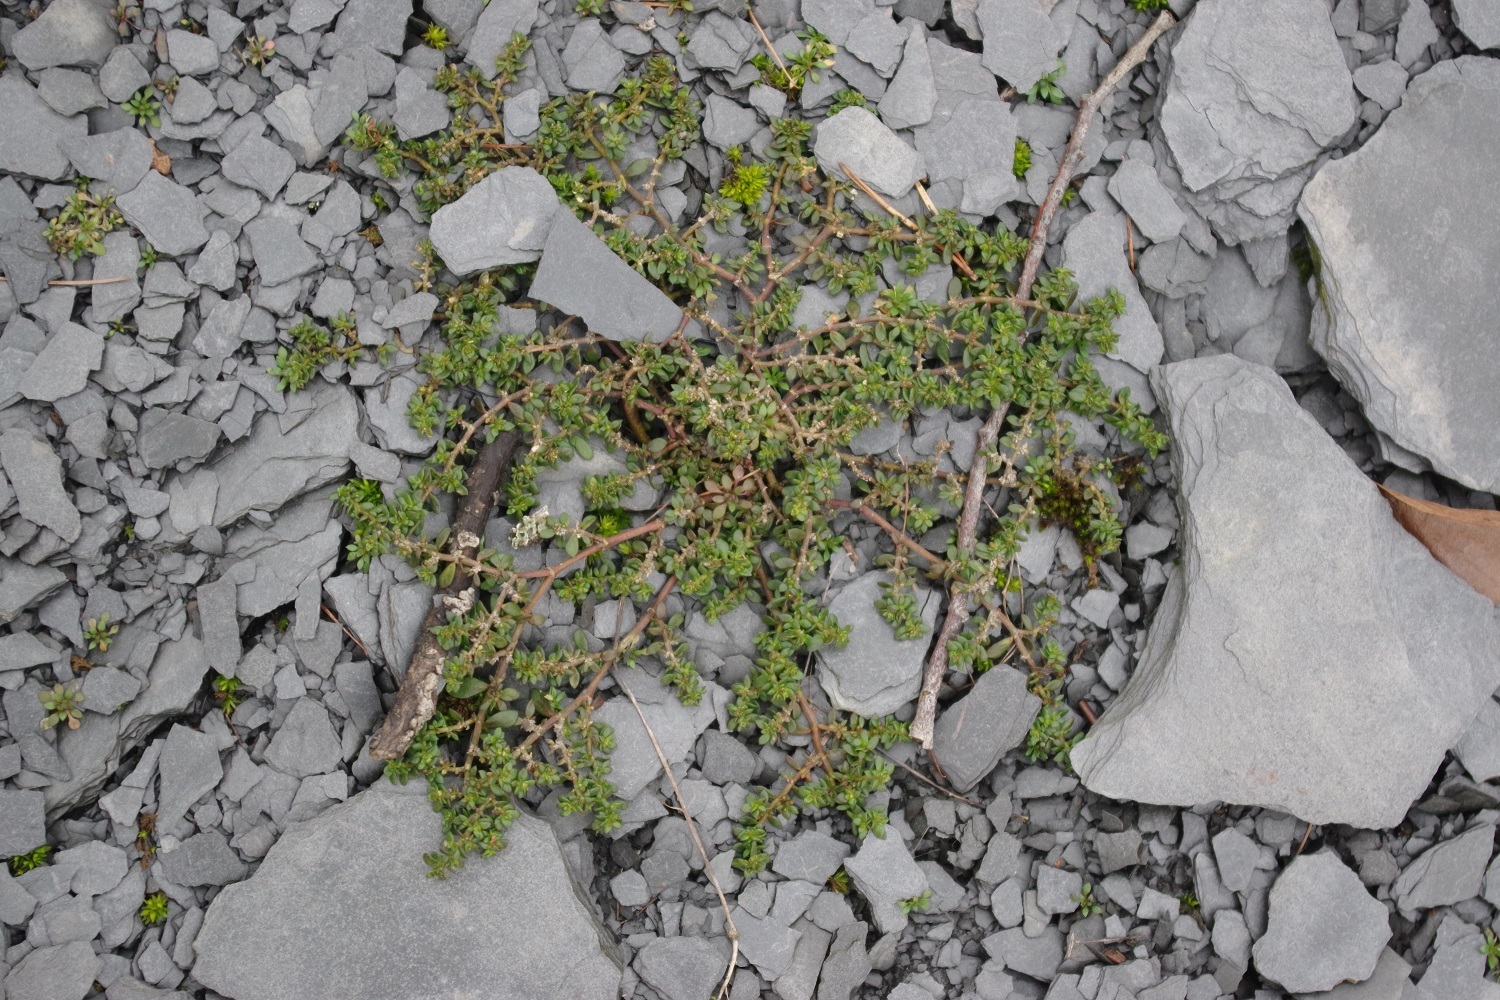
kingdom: Plantae
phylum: Tracheophyta
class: Magnoliopsida
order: Caryophyllales
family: Caryophyllaceae
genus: Herniaria
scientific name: Herniaria glabra
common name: Smooth rupturewort
